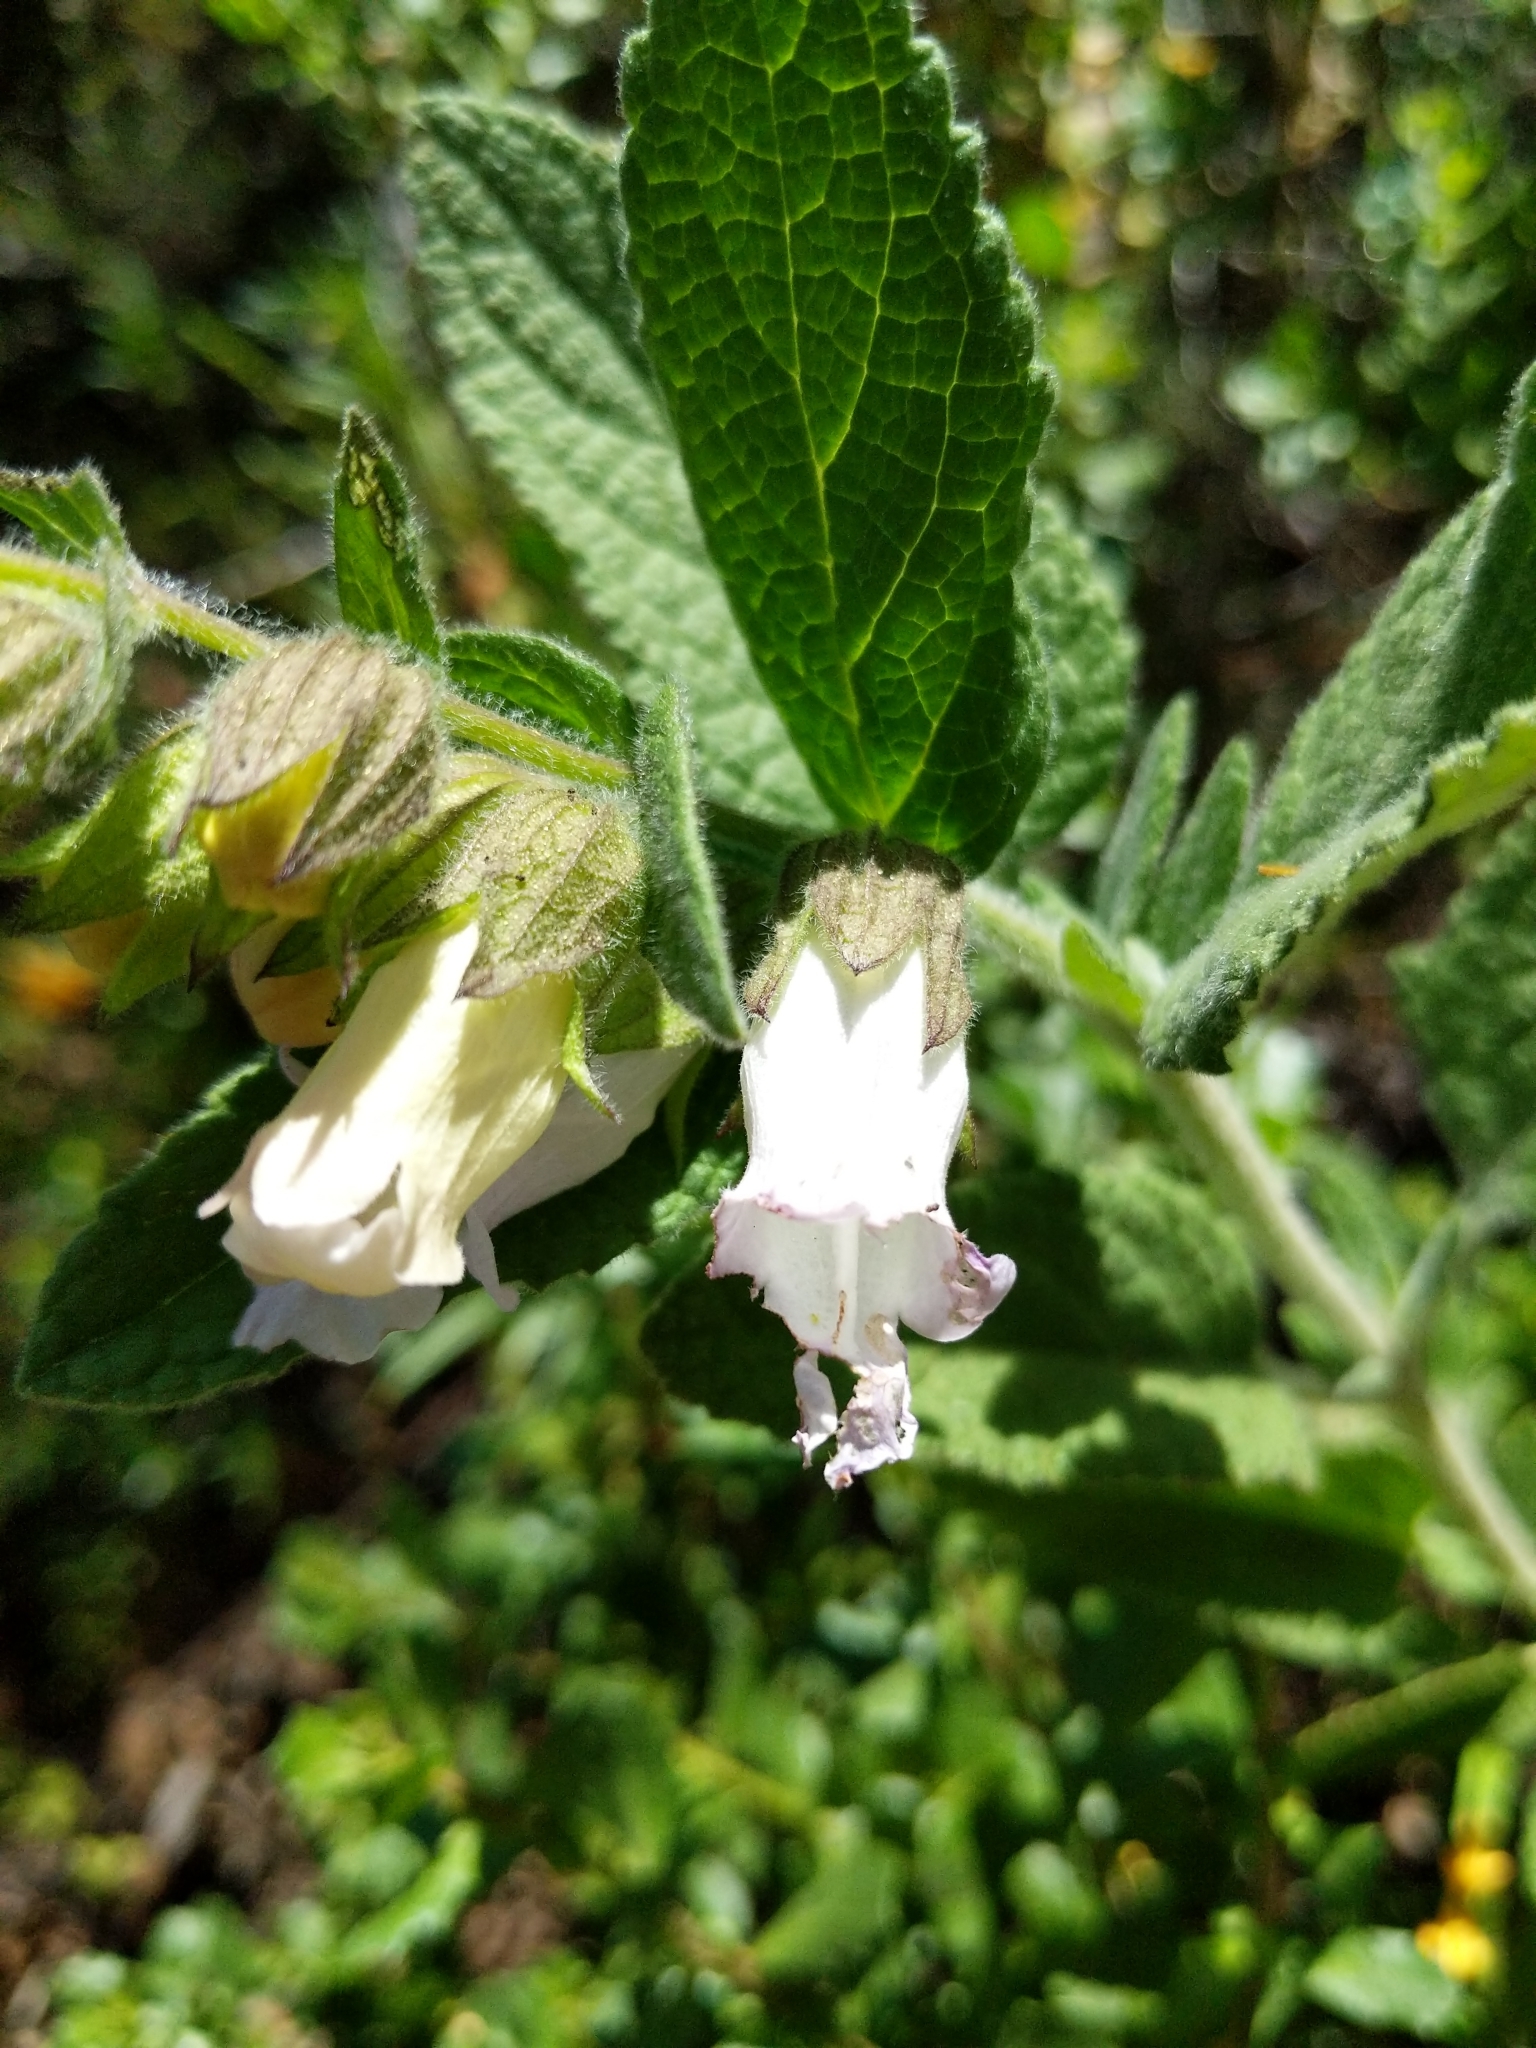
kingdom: Plantae
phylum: Tracheophyta
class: Magnoliopsida
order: Lamiales
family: Lamiaceae
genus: Lepechinia
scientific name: Lepechinia calycina
